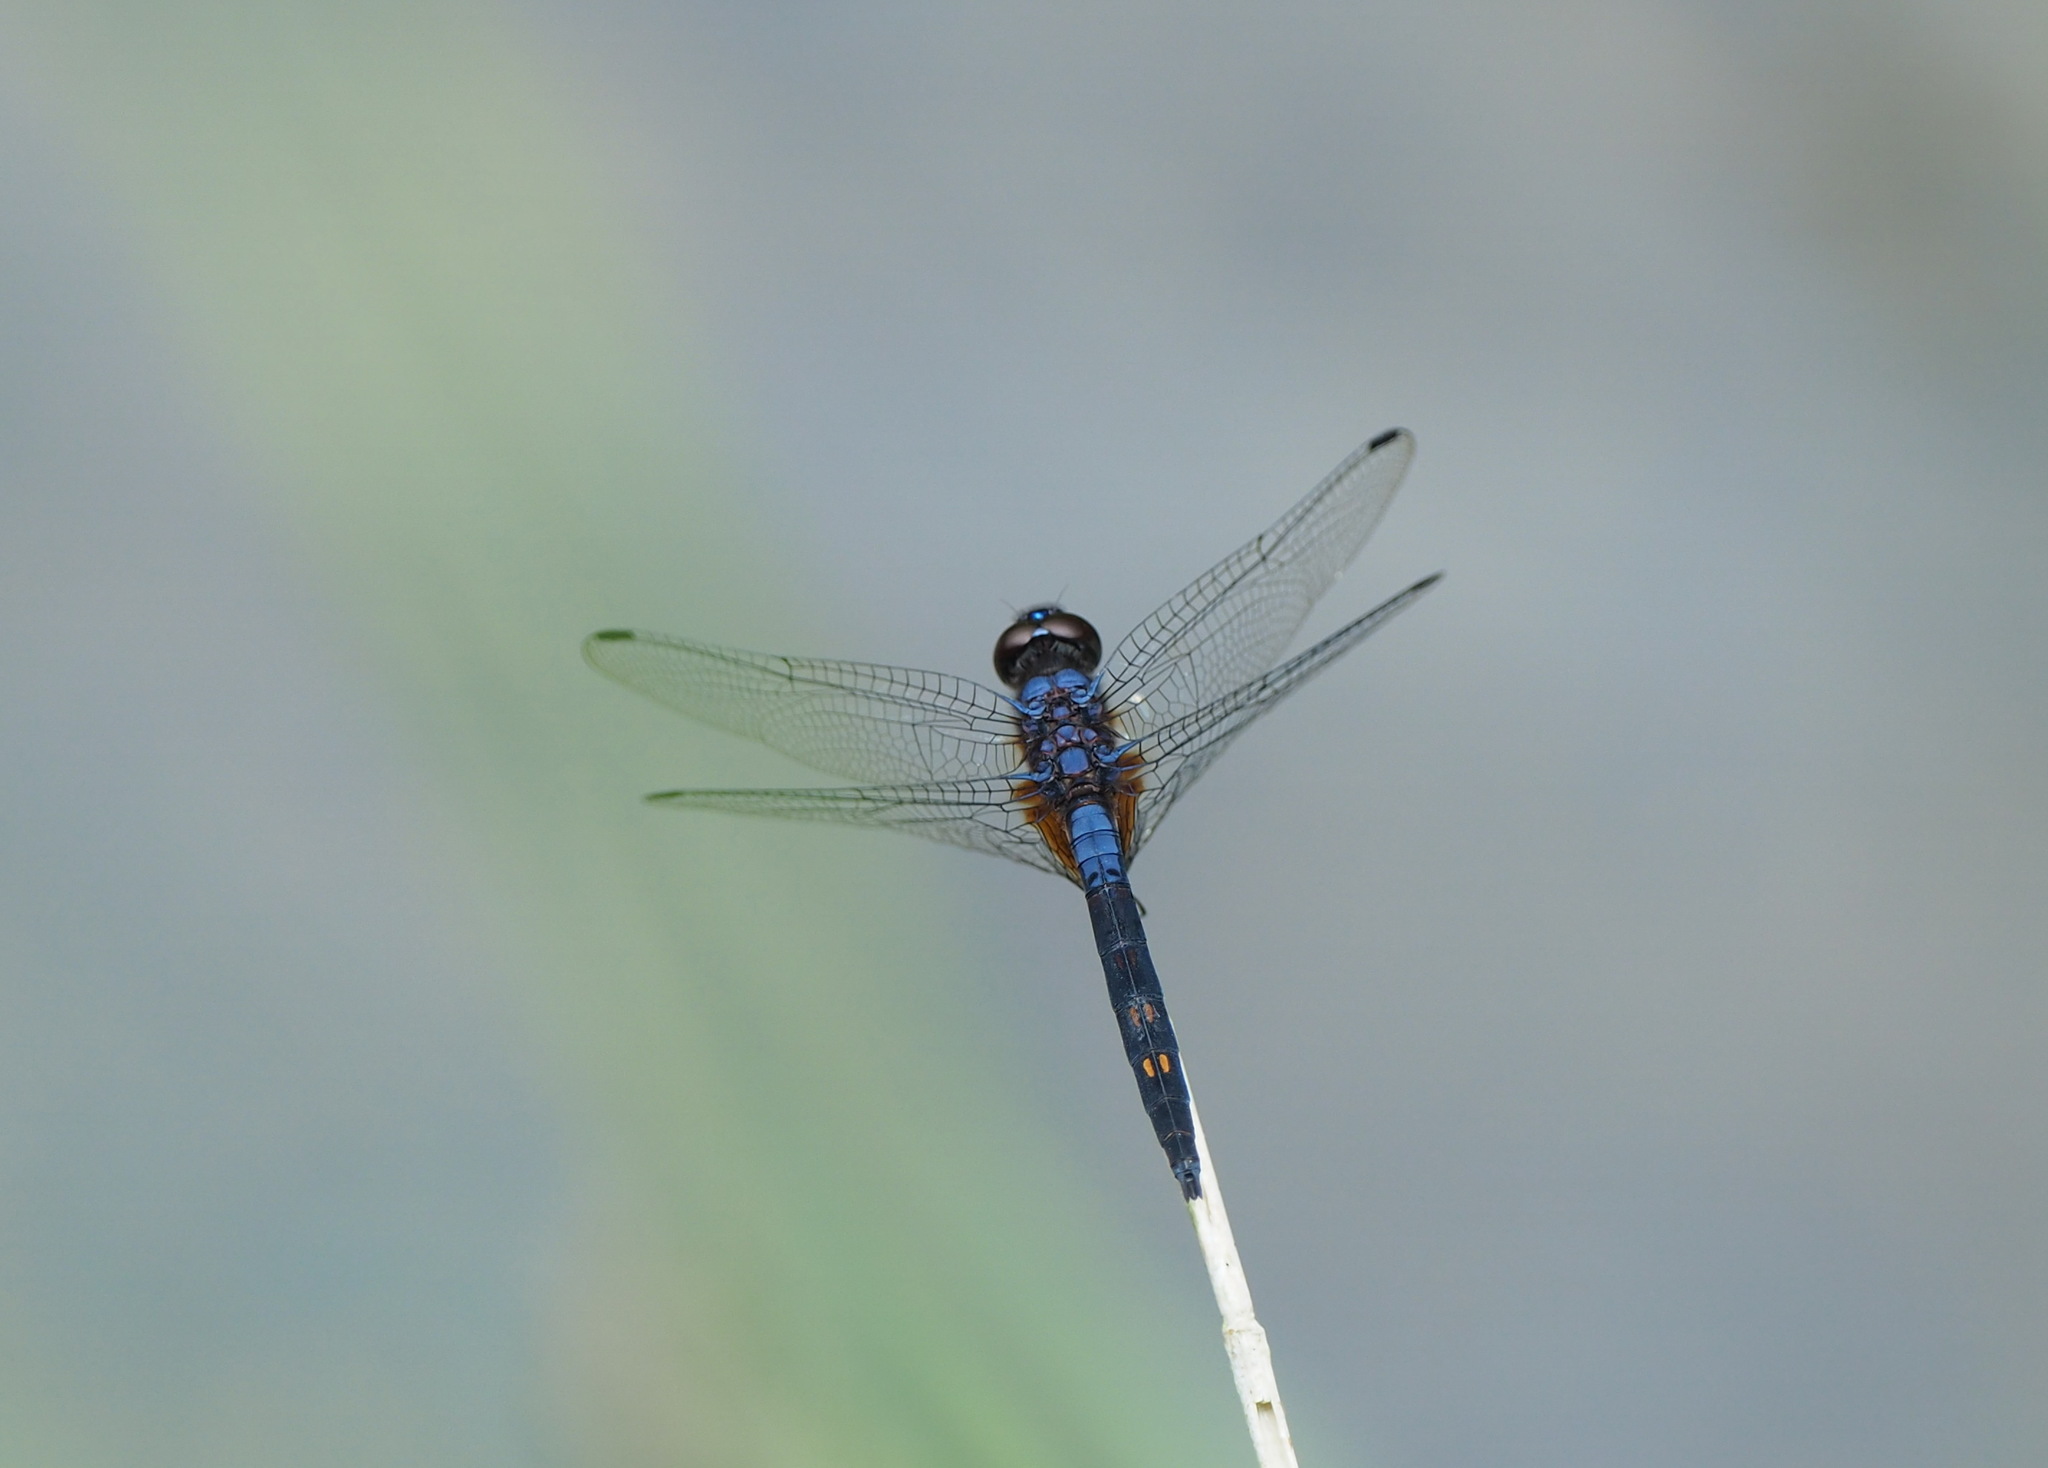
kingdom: Animalia
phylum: Arthropoda
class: Insecta
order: Odonata
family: Libellulidae
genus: Trithemis
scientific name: Trithemis festiva
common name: Indigo dropwing
